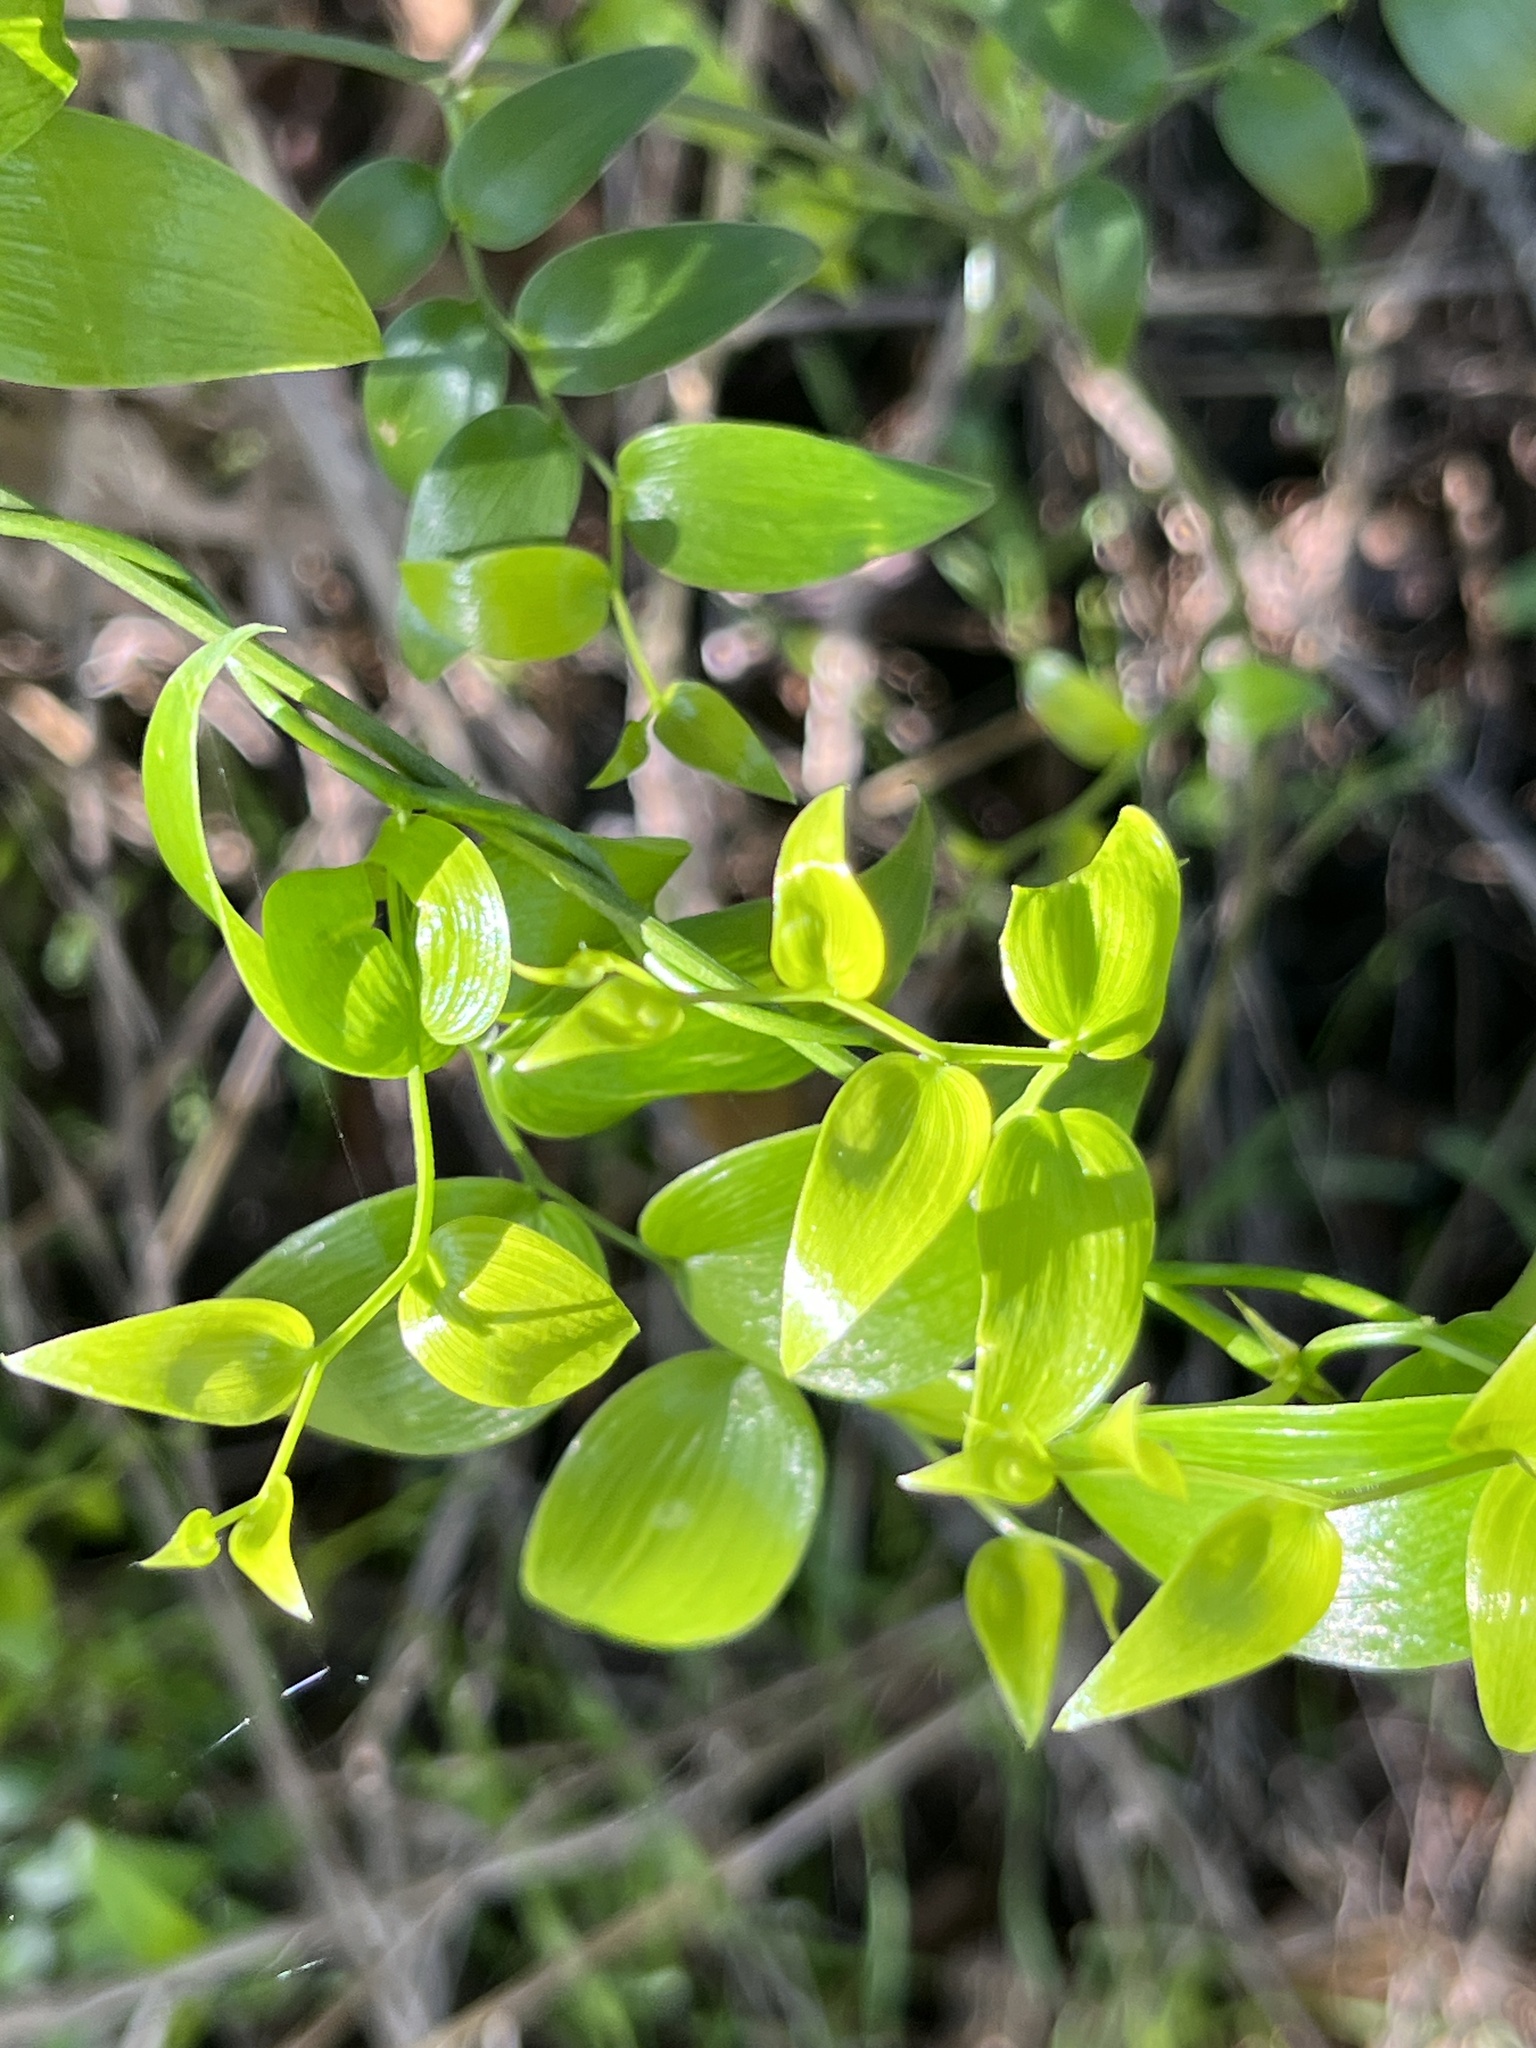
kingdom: Plantae
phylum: Tracheophyta
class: Liliopsida
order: Asparagales
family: Asparagaceae
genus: Asparagus
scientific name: Asparagus asparagoides
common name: African asparagus fern
